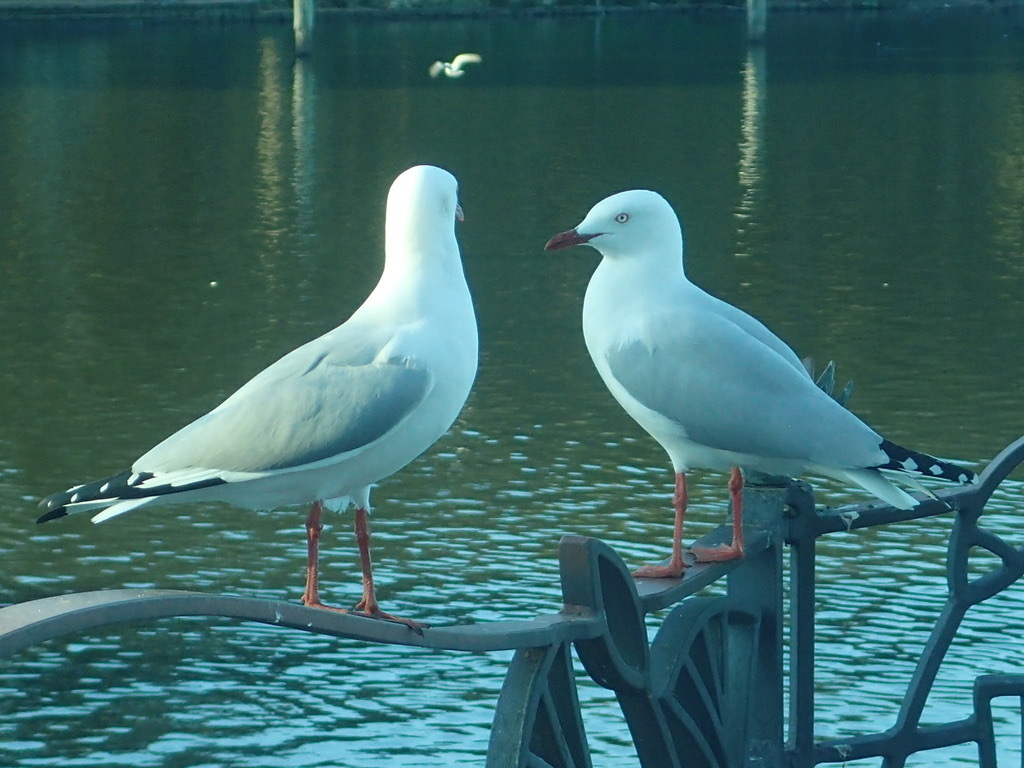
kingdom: Animalia
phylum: Chordata
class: Aves
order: Charadriiformes
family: Laridae
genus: Chroicocephalus
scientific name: Chroicocephalus novaehollandiae
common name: Silver gull
